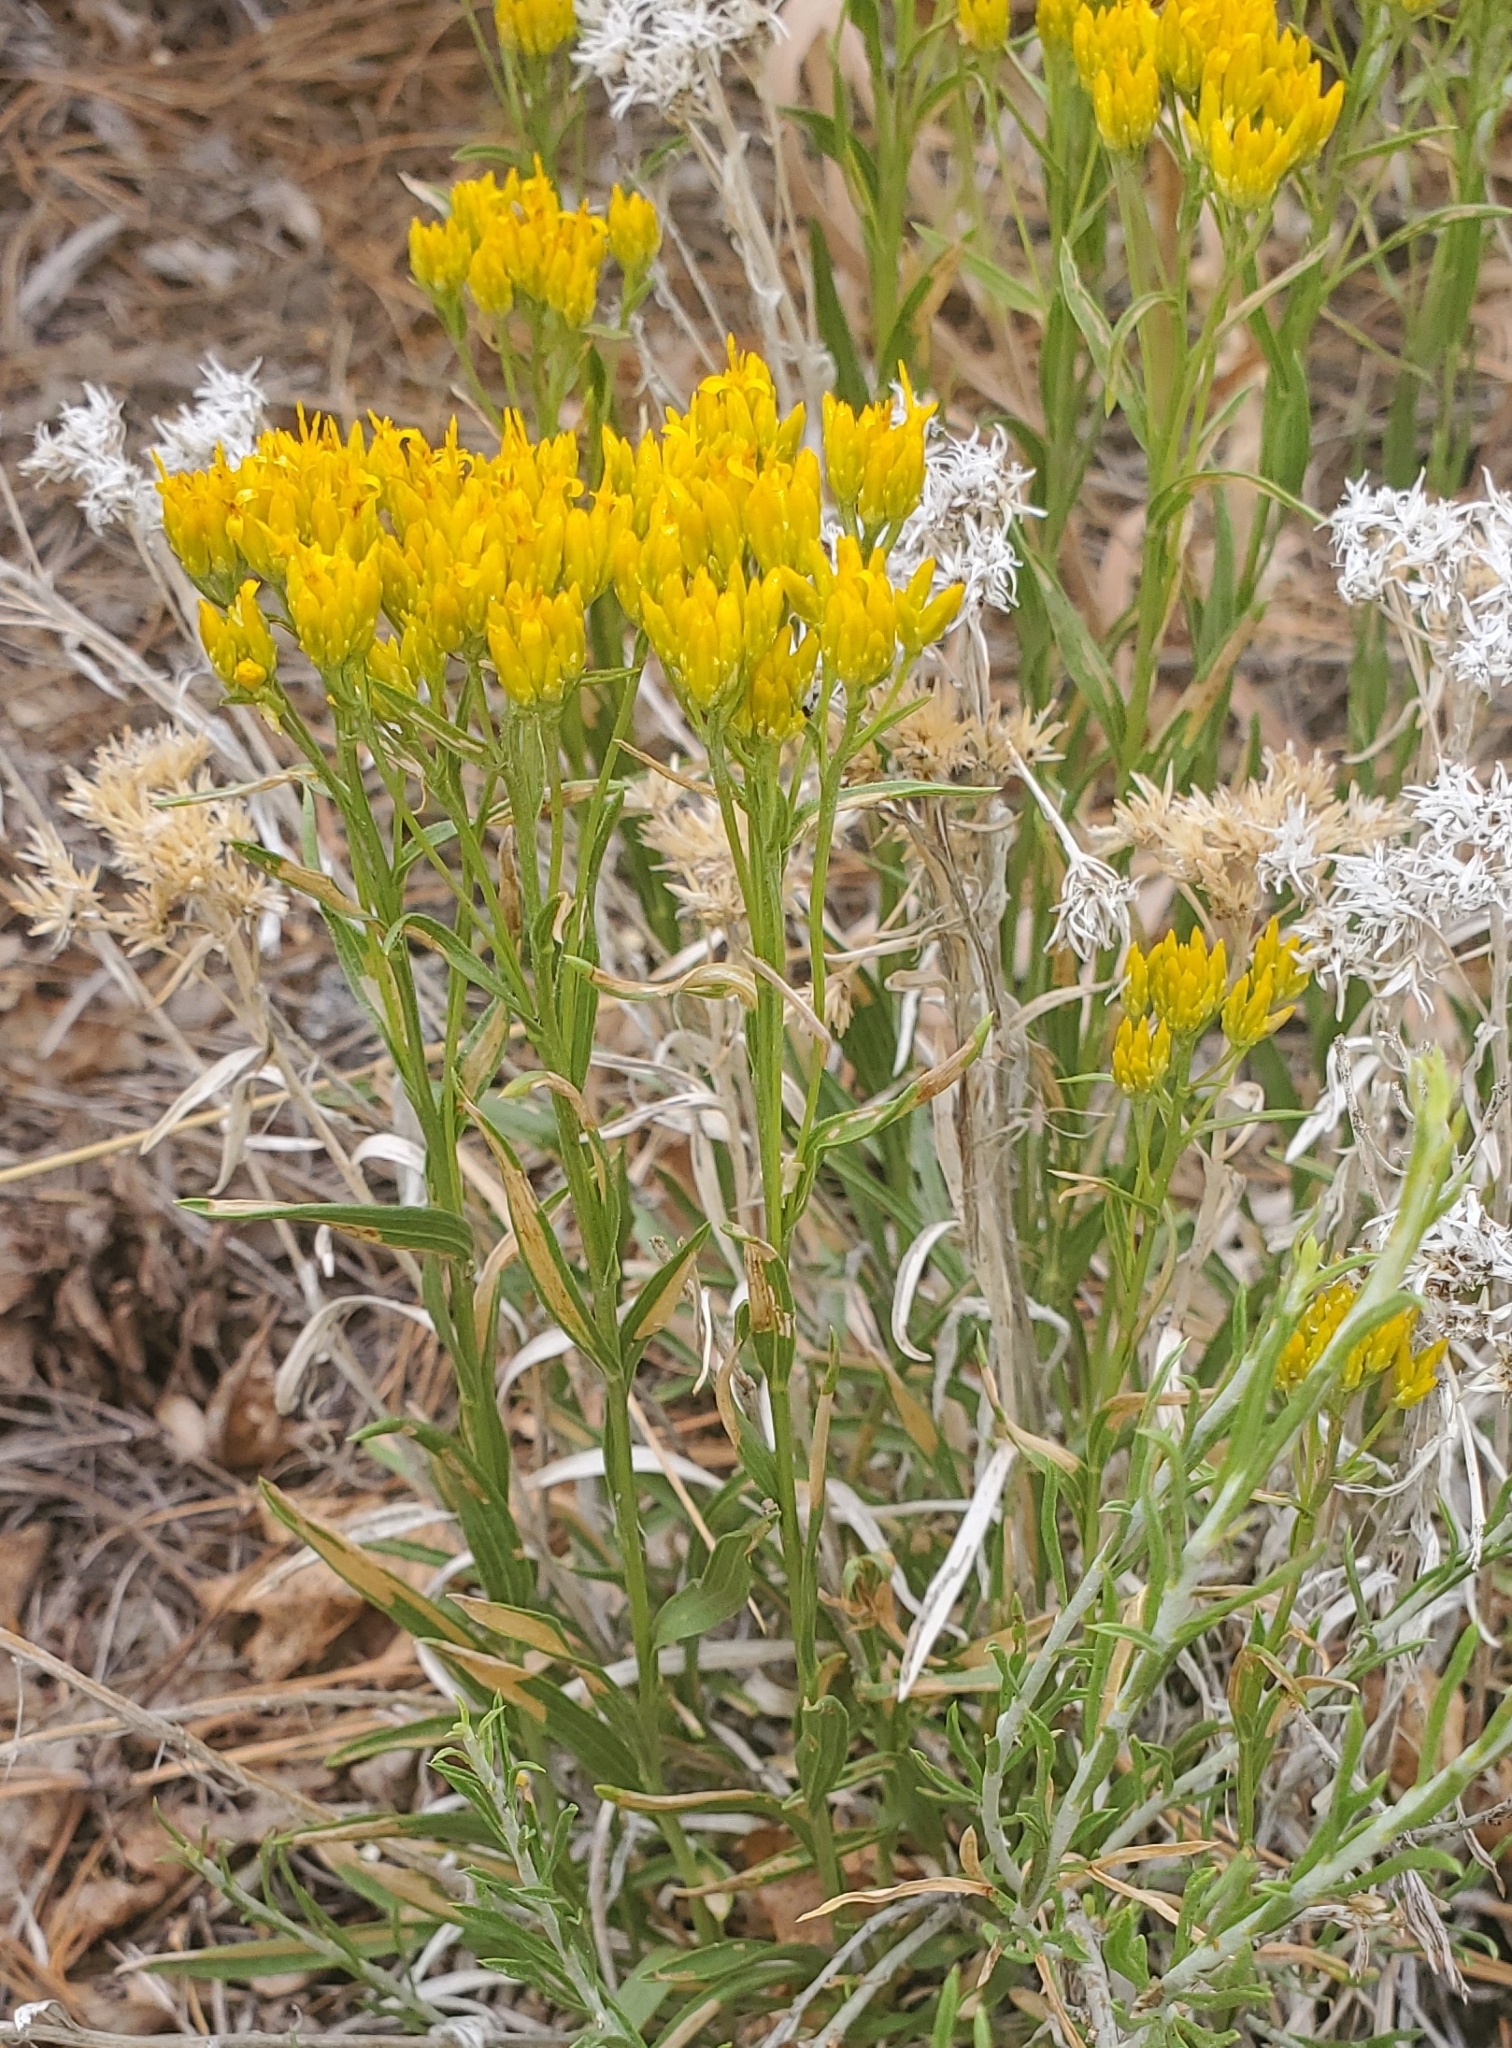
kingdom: Plantae
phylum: Tracheophyta
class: Magnoliopsida
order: Asterales
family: Asteraceae
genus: Petradoria
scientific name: Petradoria pumila
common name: Rock-goldenrod
